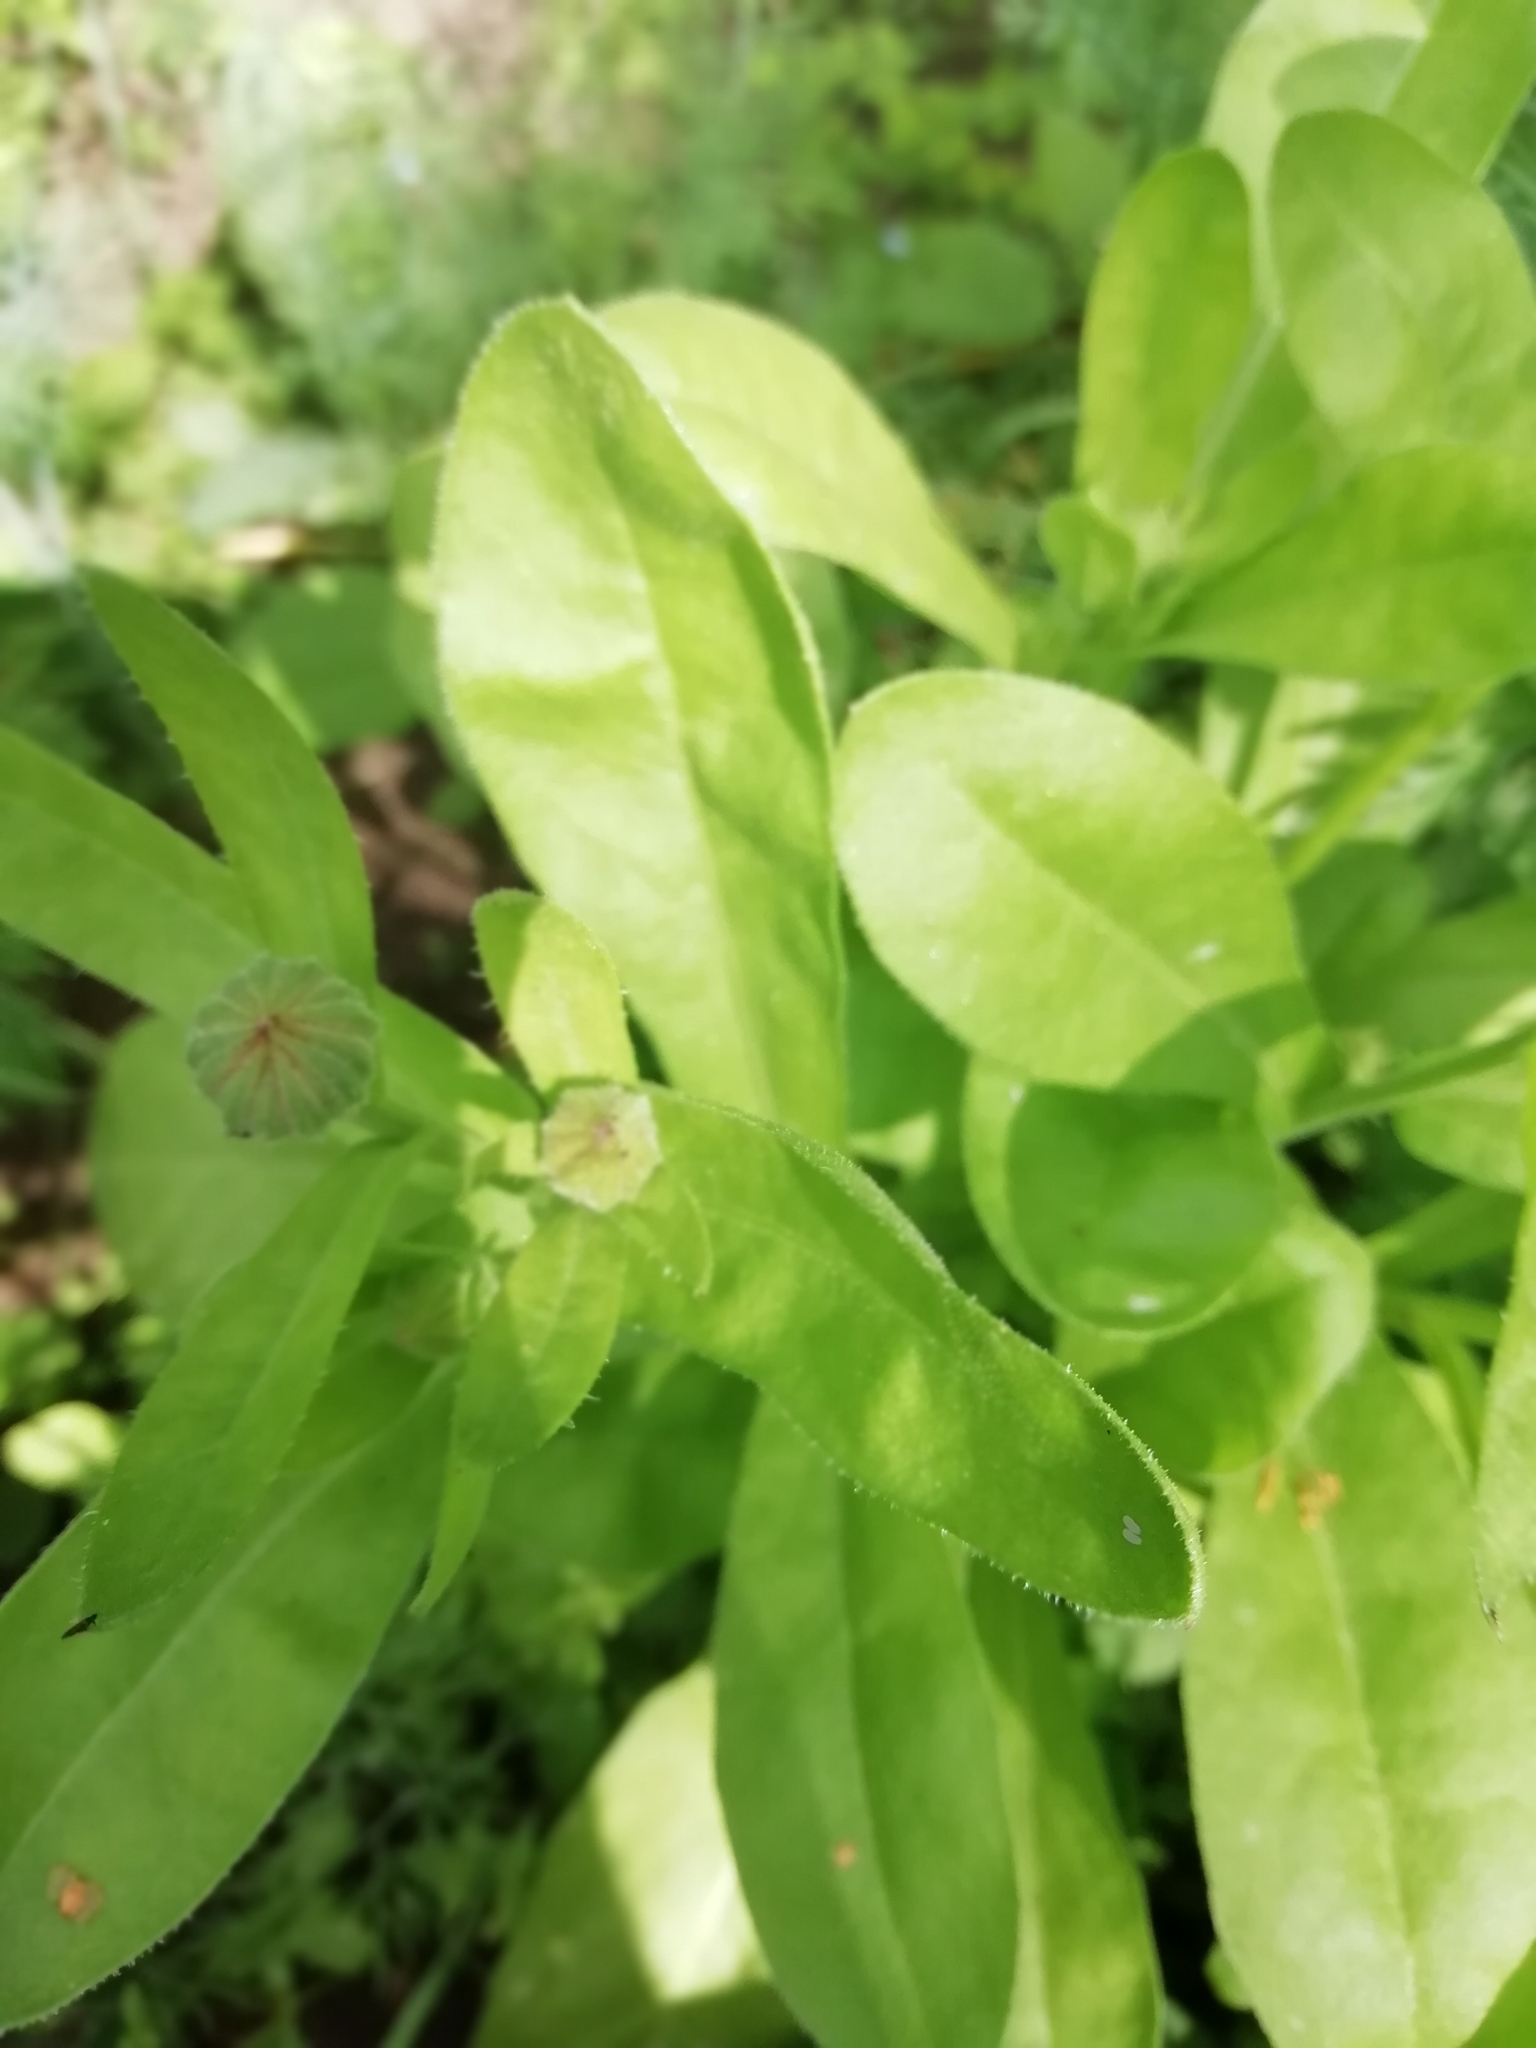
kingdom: Plantae
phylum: Tracheophyta
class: Magnoliopsida
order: Asterales
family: Asteraceae
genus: Calendula
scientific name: Calendula officinalis
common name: Pot marigold
